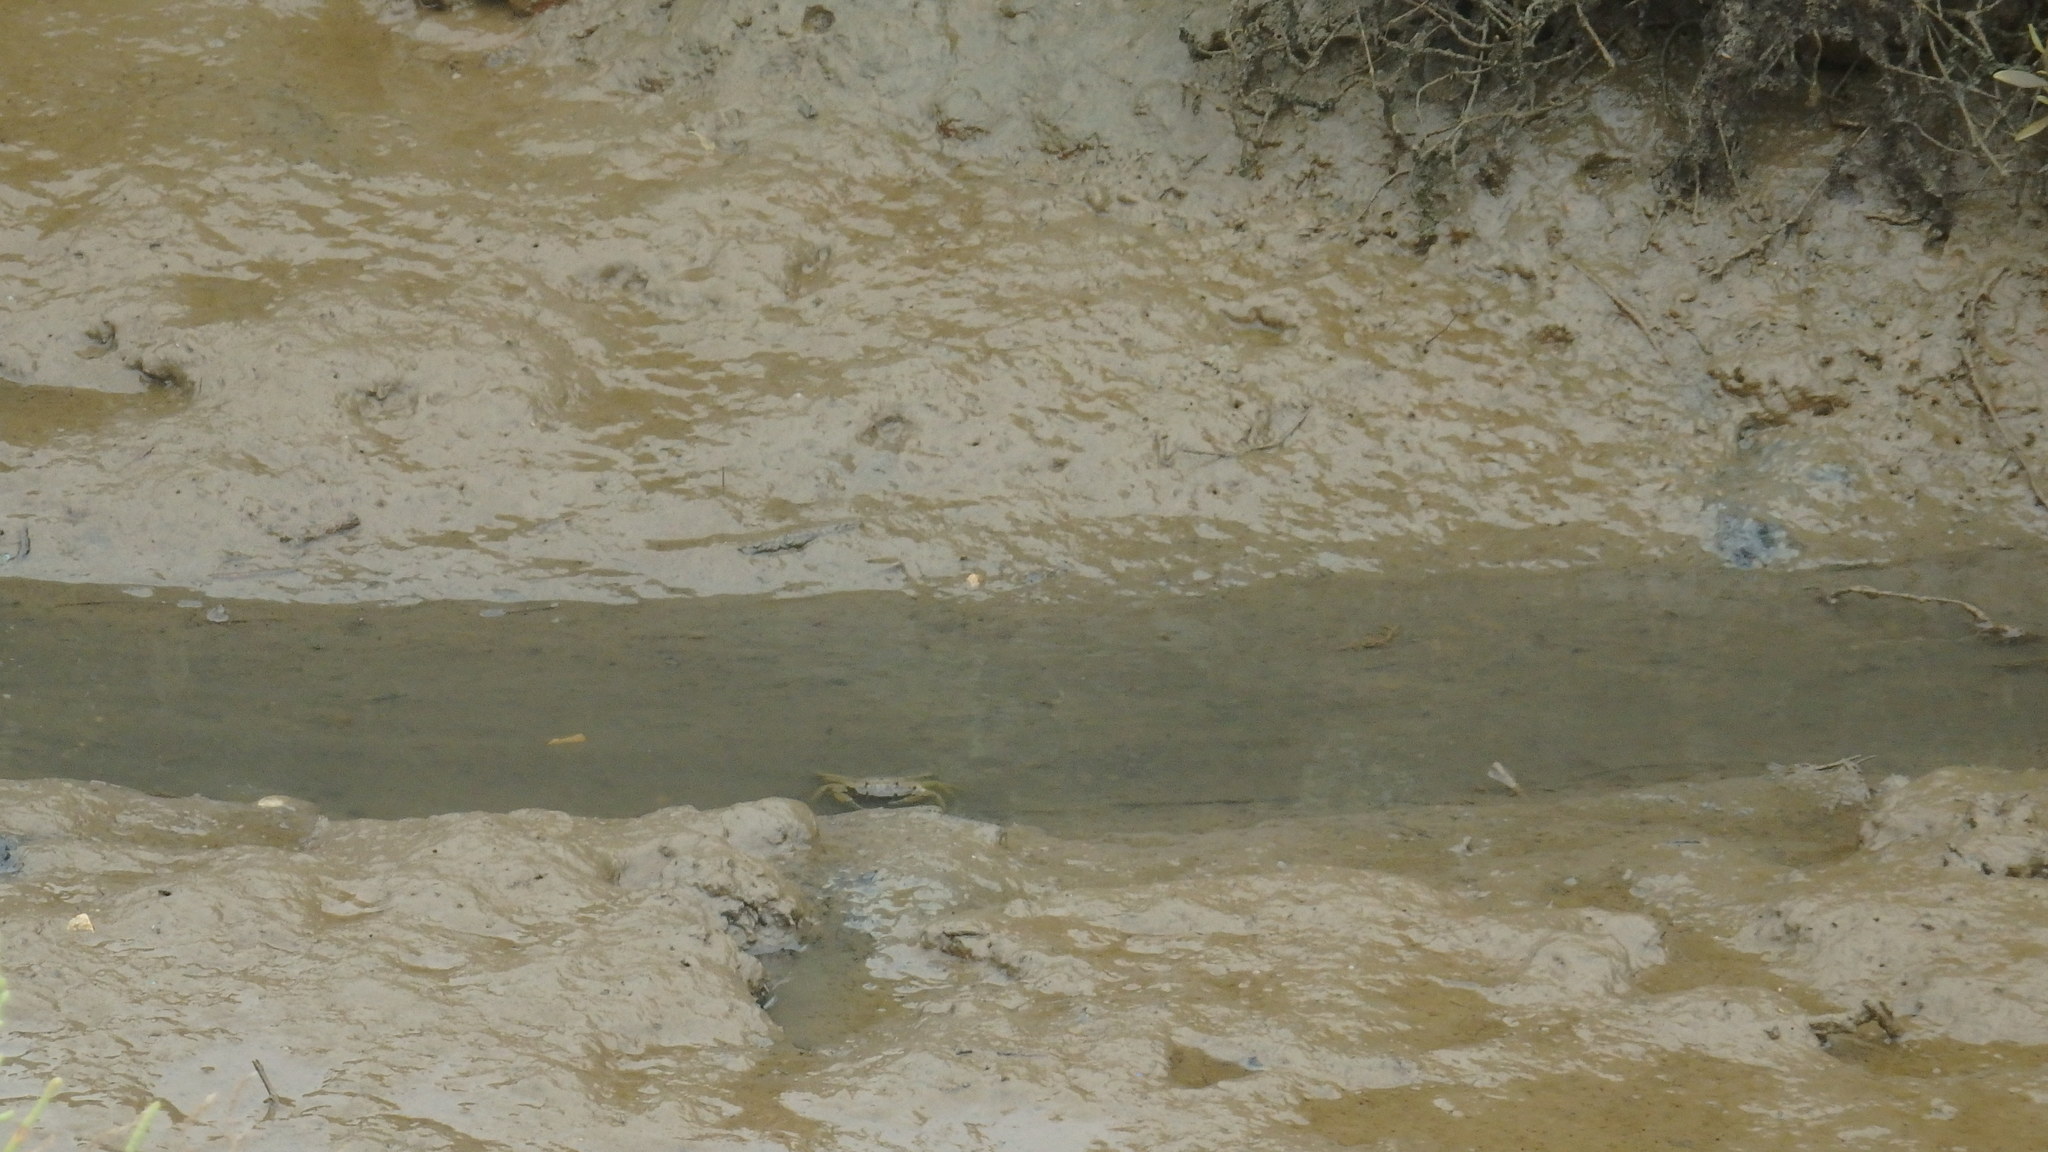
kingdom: Animalia
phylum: Arthropoda
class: Malacostraca
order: Decapoda
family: Carcinidae
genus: Carcinus
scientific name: Carcinus maenas
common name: European green crab
